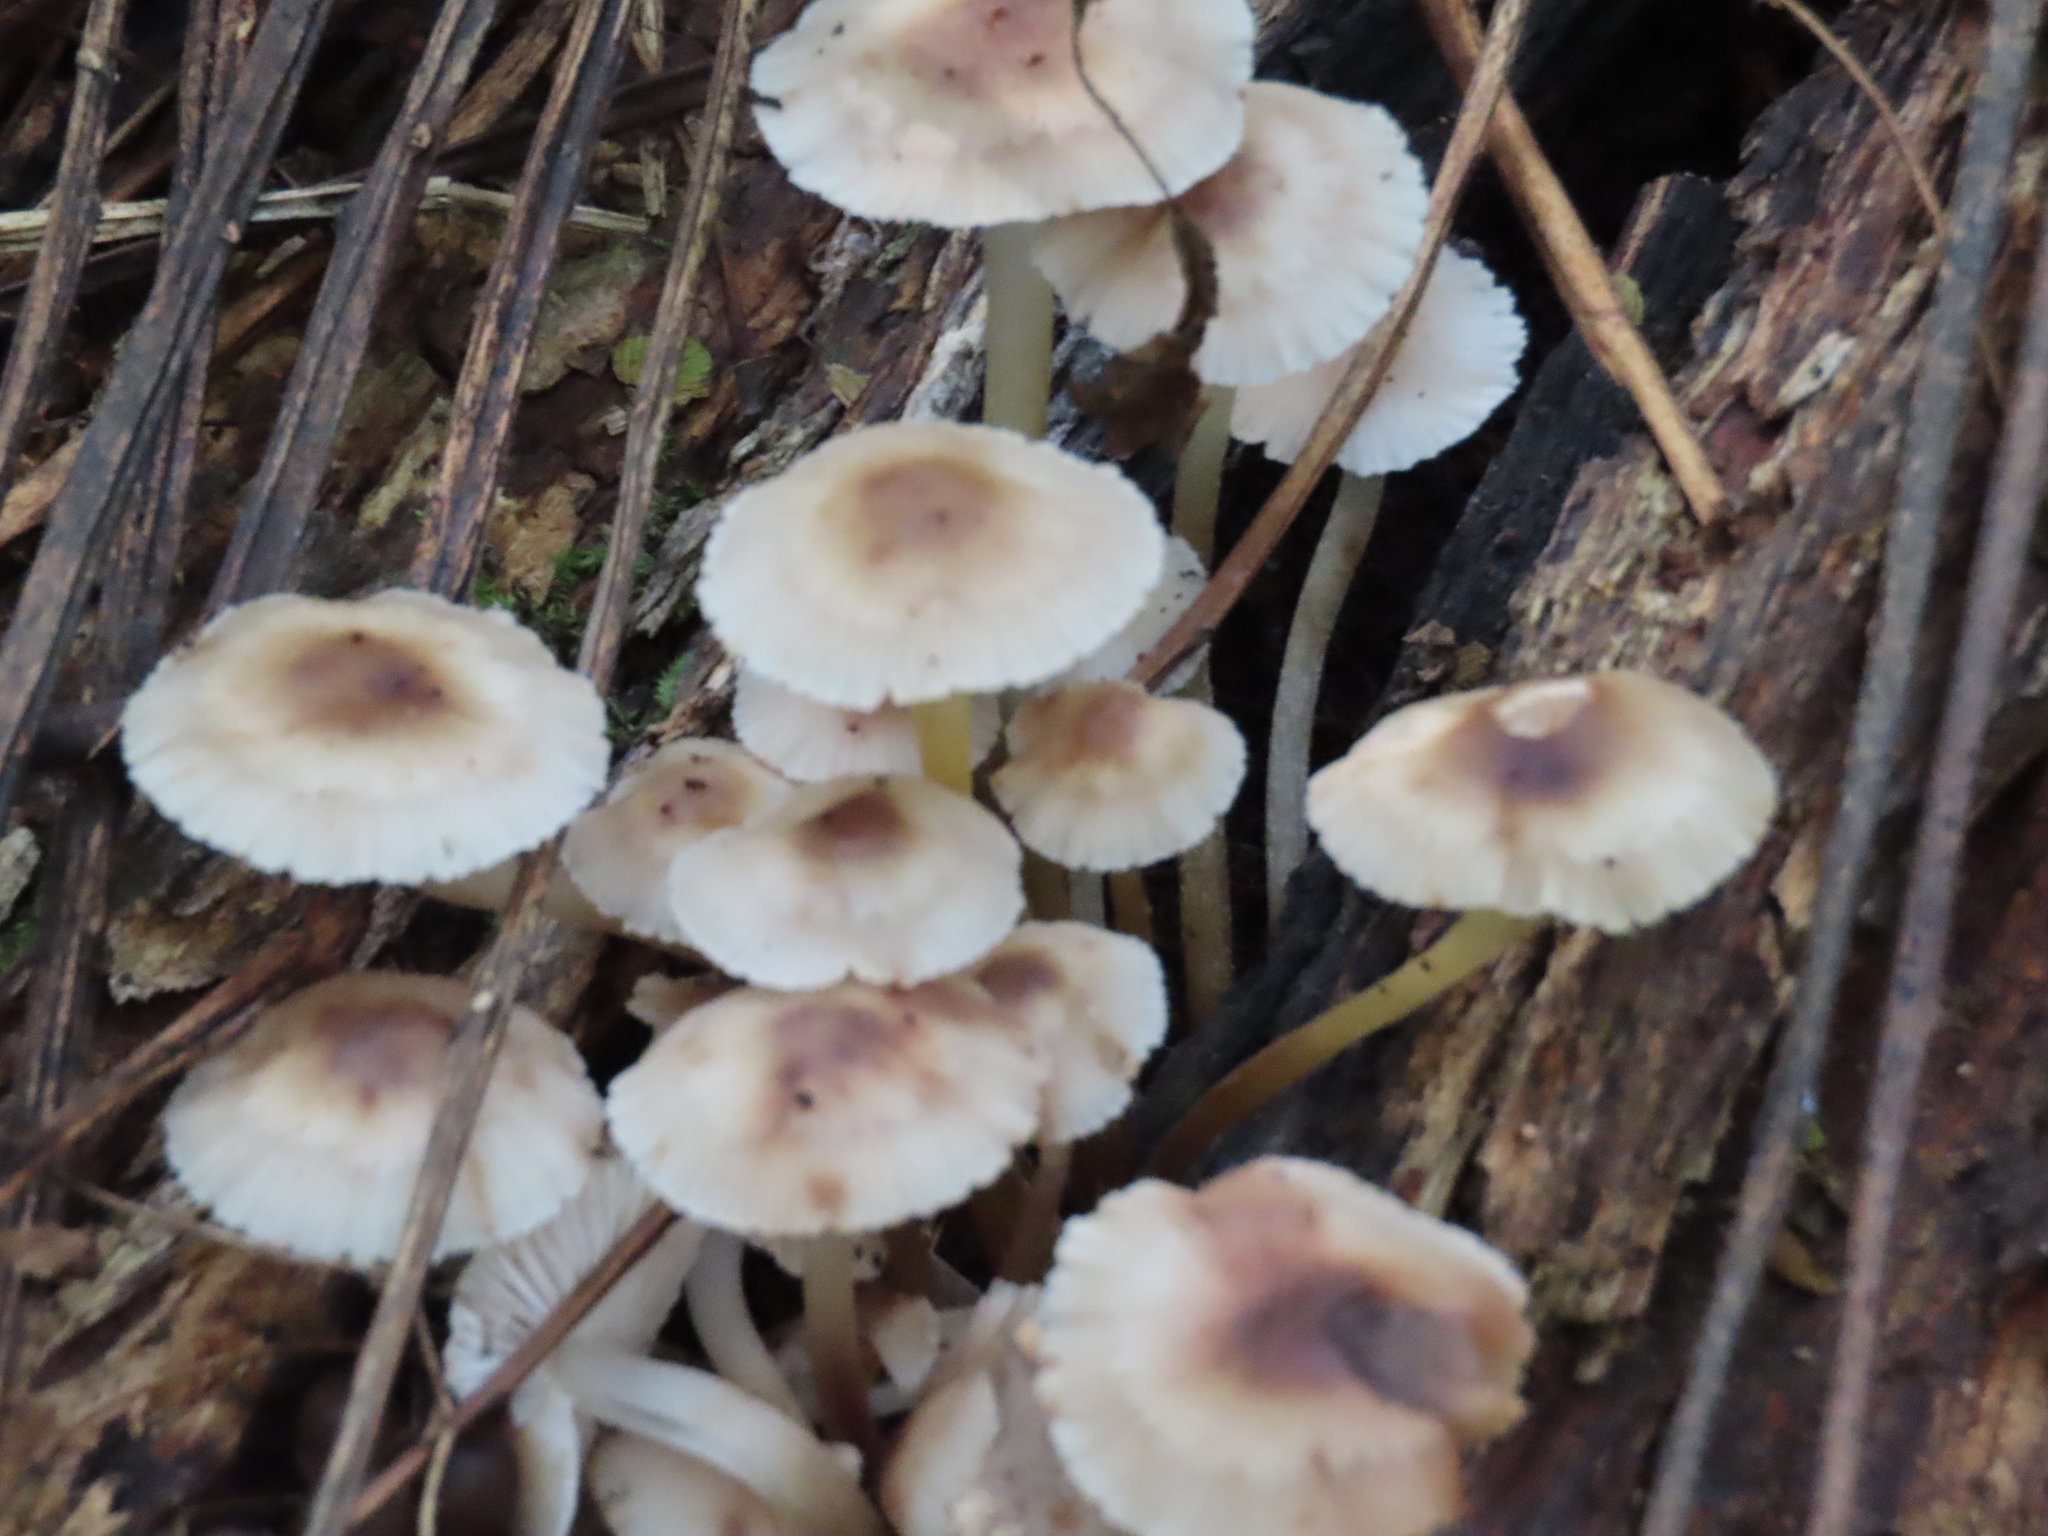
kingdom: Fungi
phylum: Basidiomycota
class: Agaricomycetes
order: Agaricales
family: Mycenaceae
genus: Mycena
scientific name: Mycena inclinata
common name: Clustered bonnet
